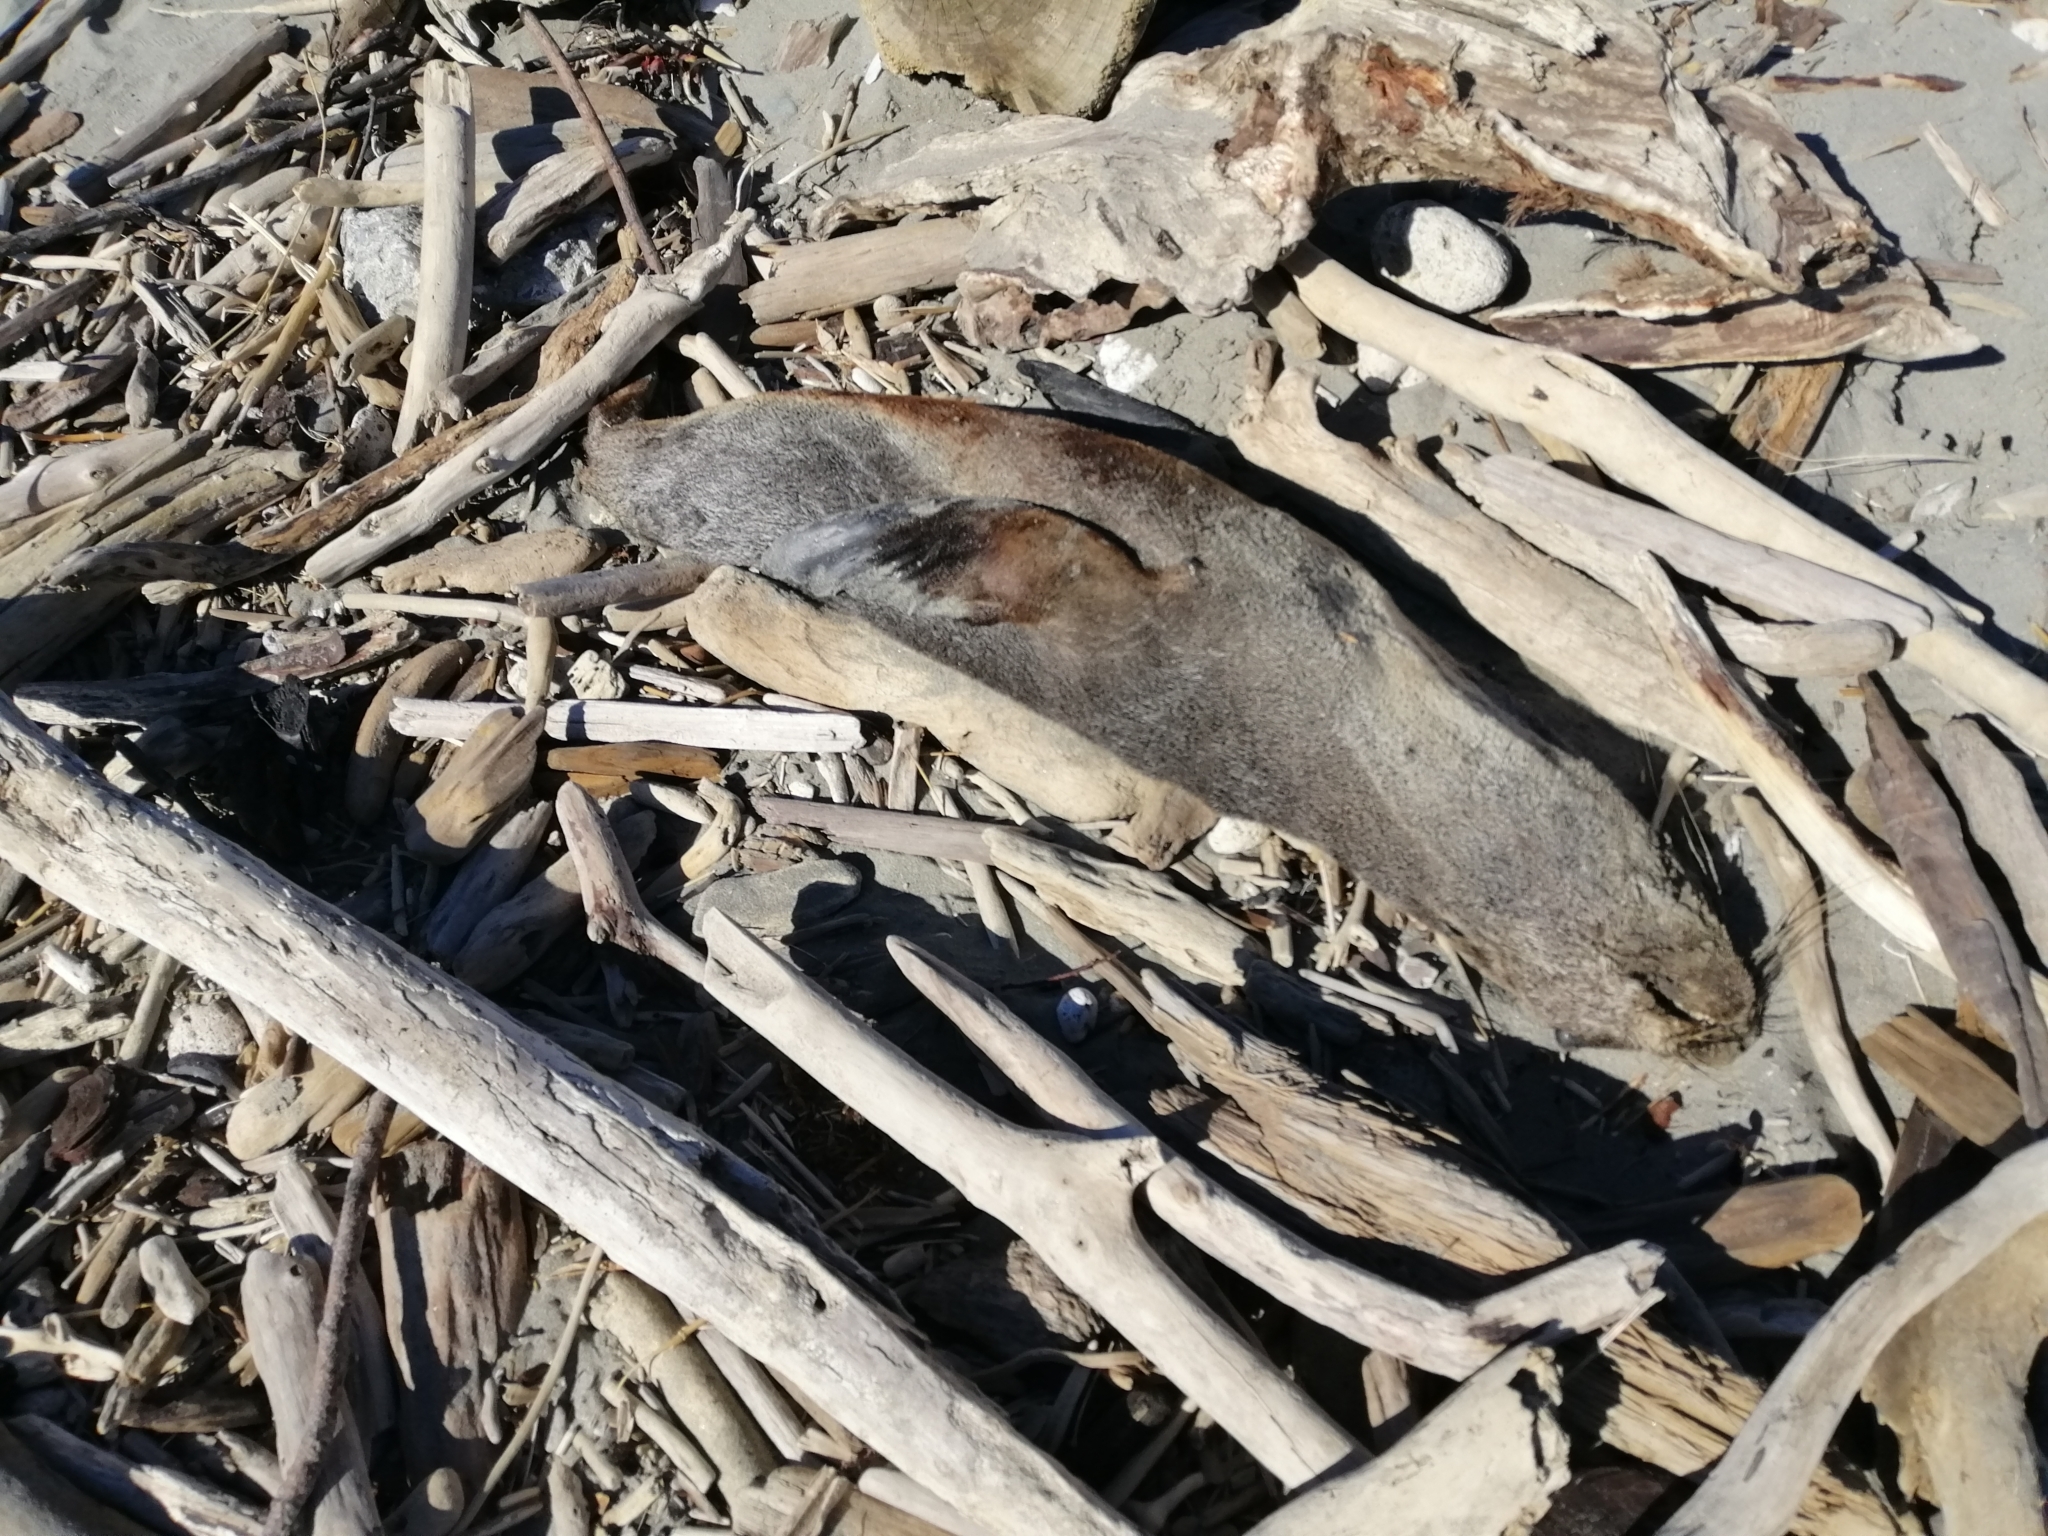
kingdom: Animalia
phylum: Chordata
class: Mammalia
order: Carnivora
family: Otariidae
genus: Arctocephalus
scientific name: Arctocephalus forsteri
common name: New zealand fur seal
